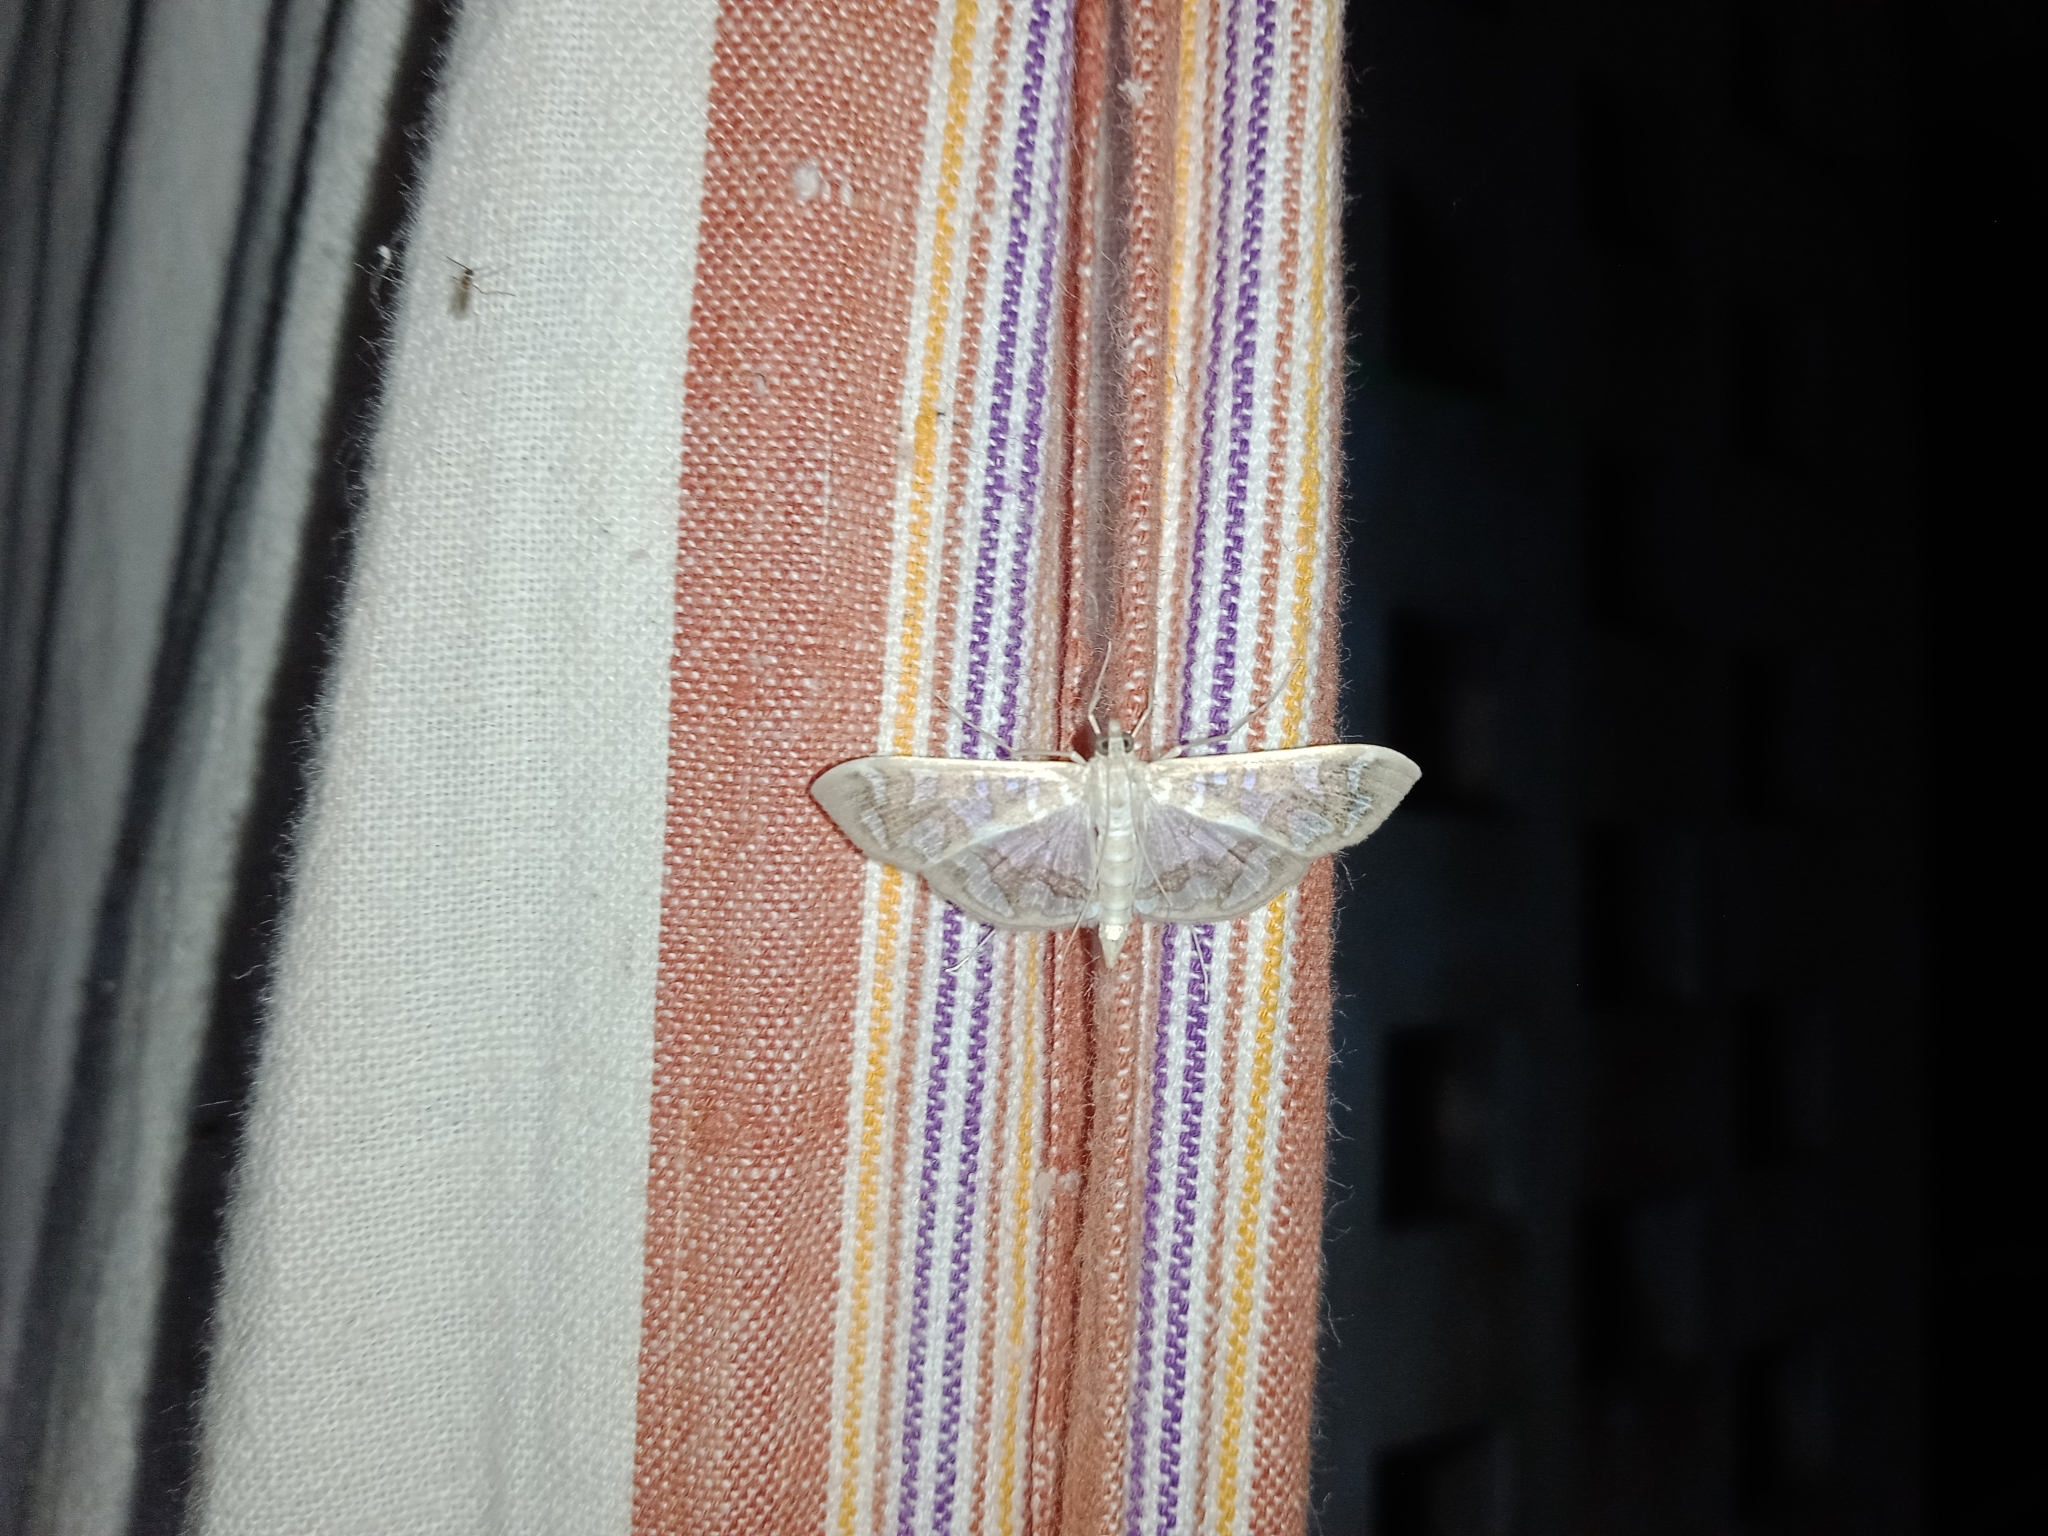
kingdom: Animalia
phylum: Arthropoda
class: Insecta
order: Lepidoptera
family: Crambidae
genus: Nausinoe
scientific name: Nausinoe perspectata
